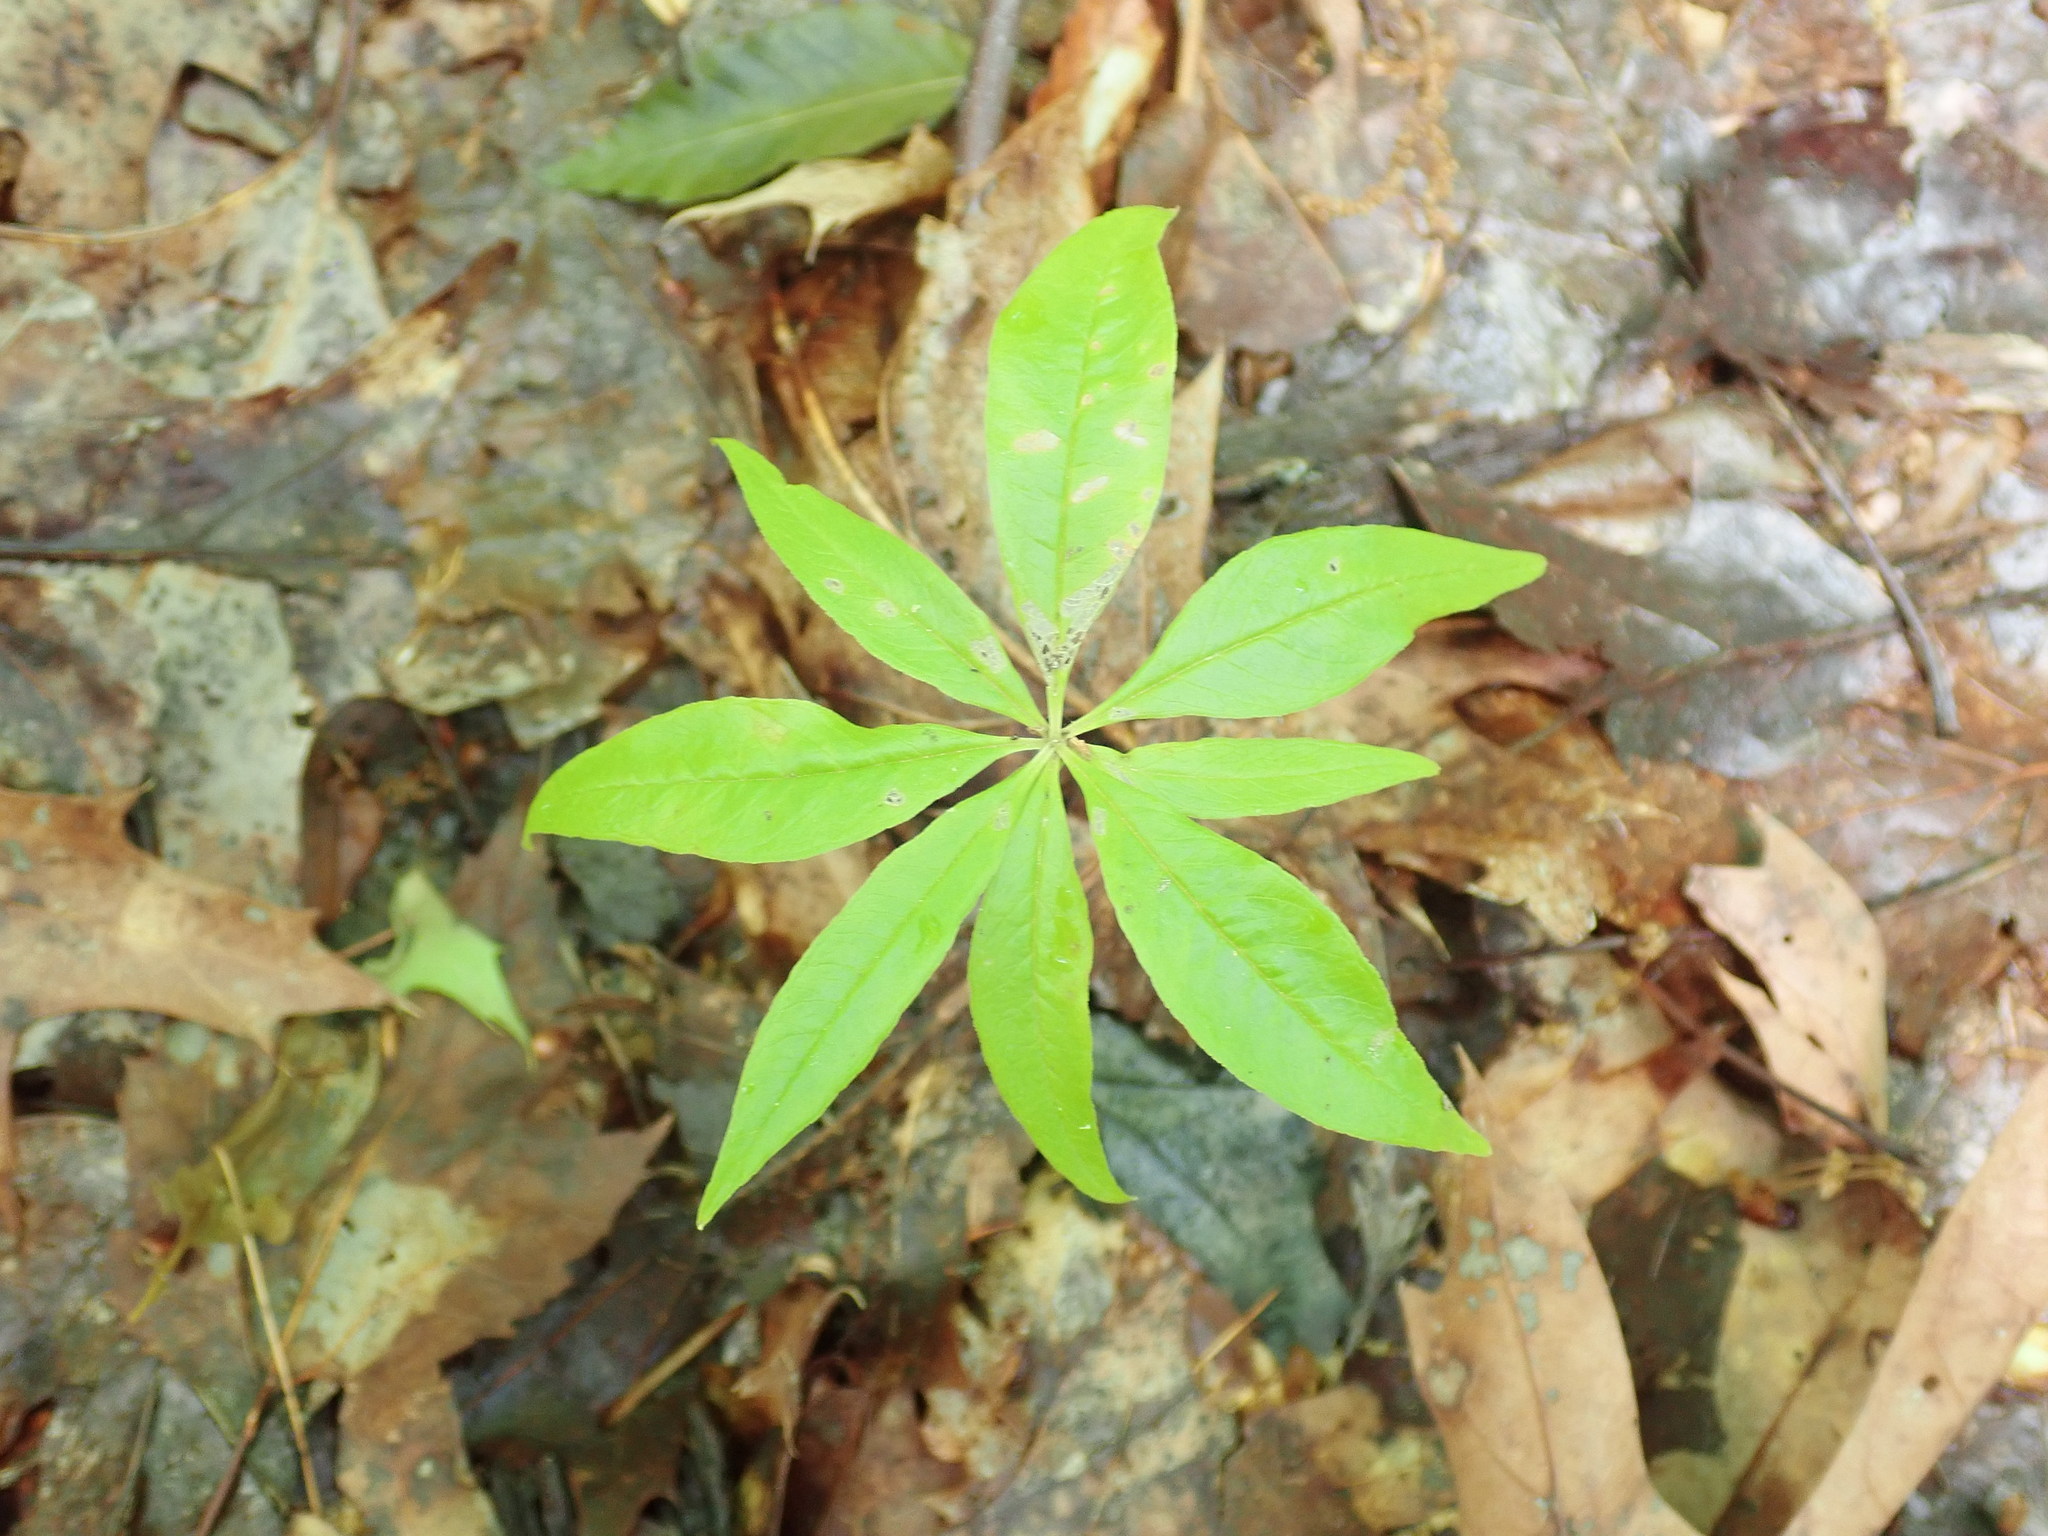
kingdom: Plantae
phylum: Tracheophyta
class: Magnoliopsida
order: Ericales
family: Primulaceae
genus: Lysimachia
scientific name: Lysimachia borealis
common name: American starflower
